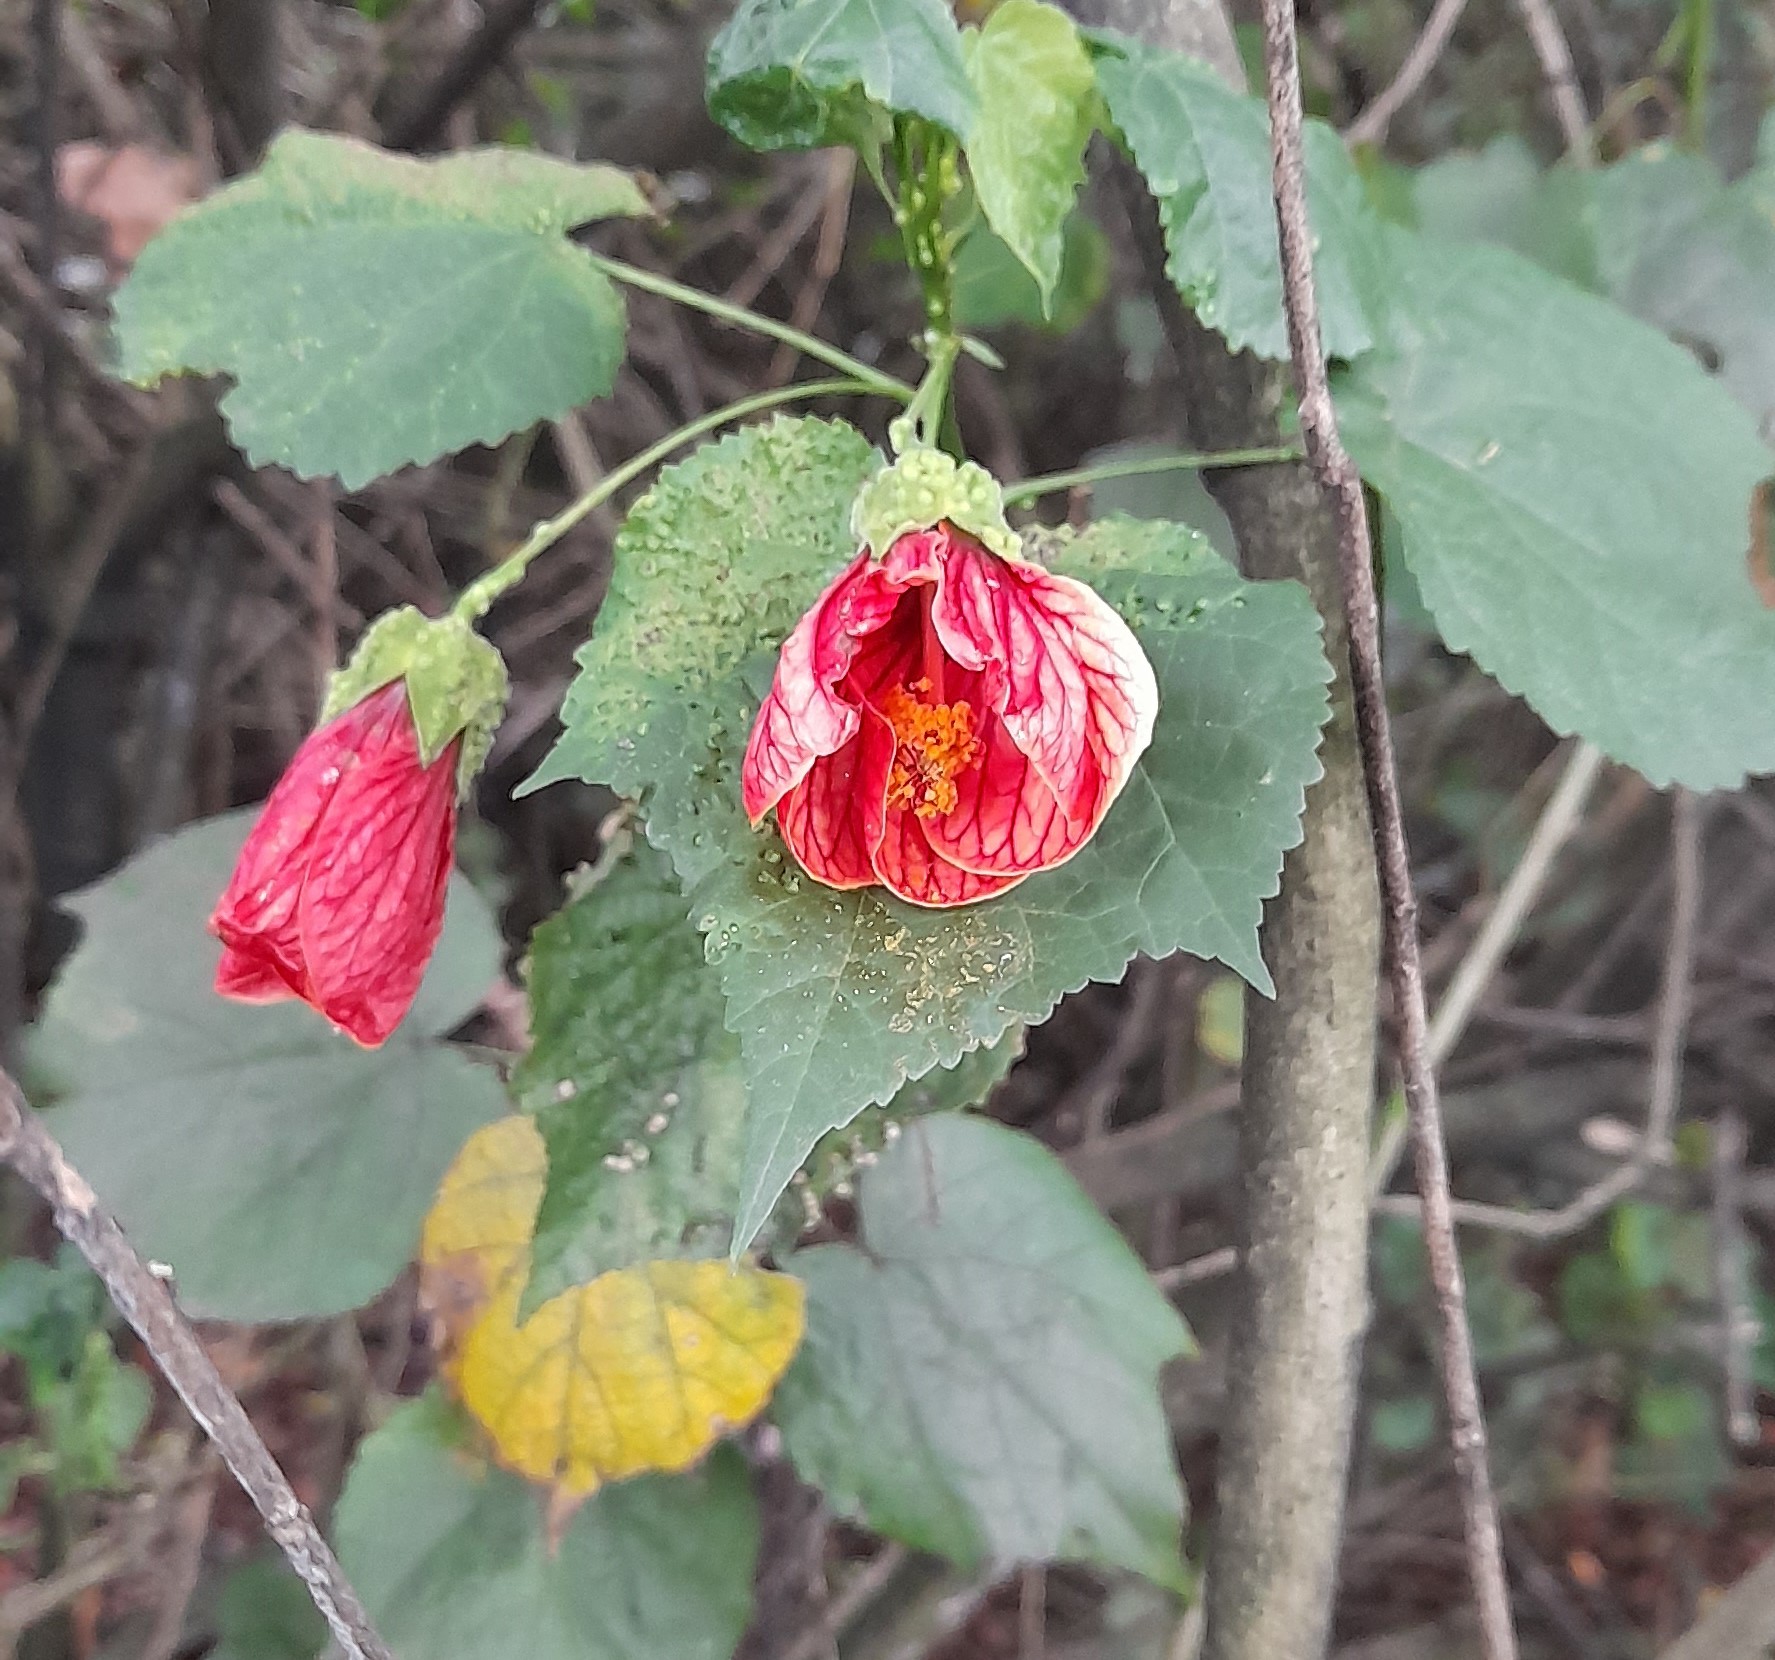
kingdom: Plantae
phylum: Tracheophyta
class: Magnoliopsida
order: Malvales
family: Malvaceae
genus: Callianthe
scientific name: Callianthe picta
